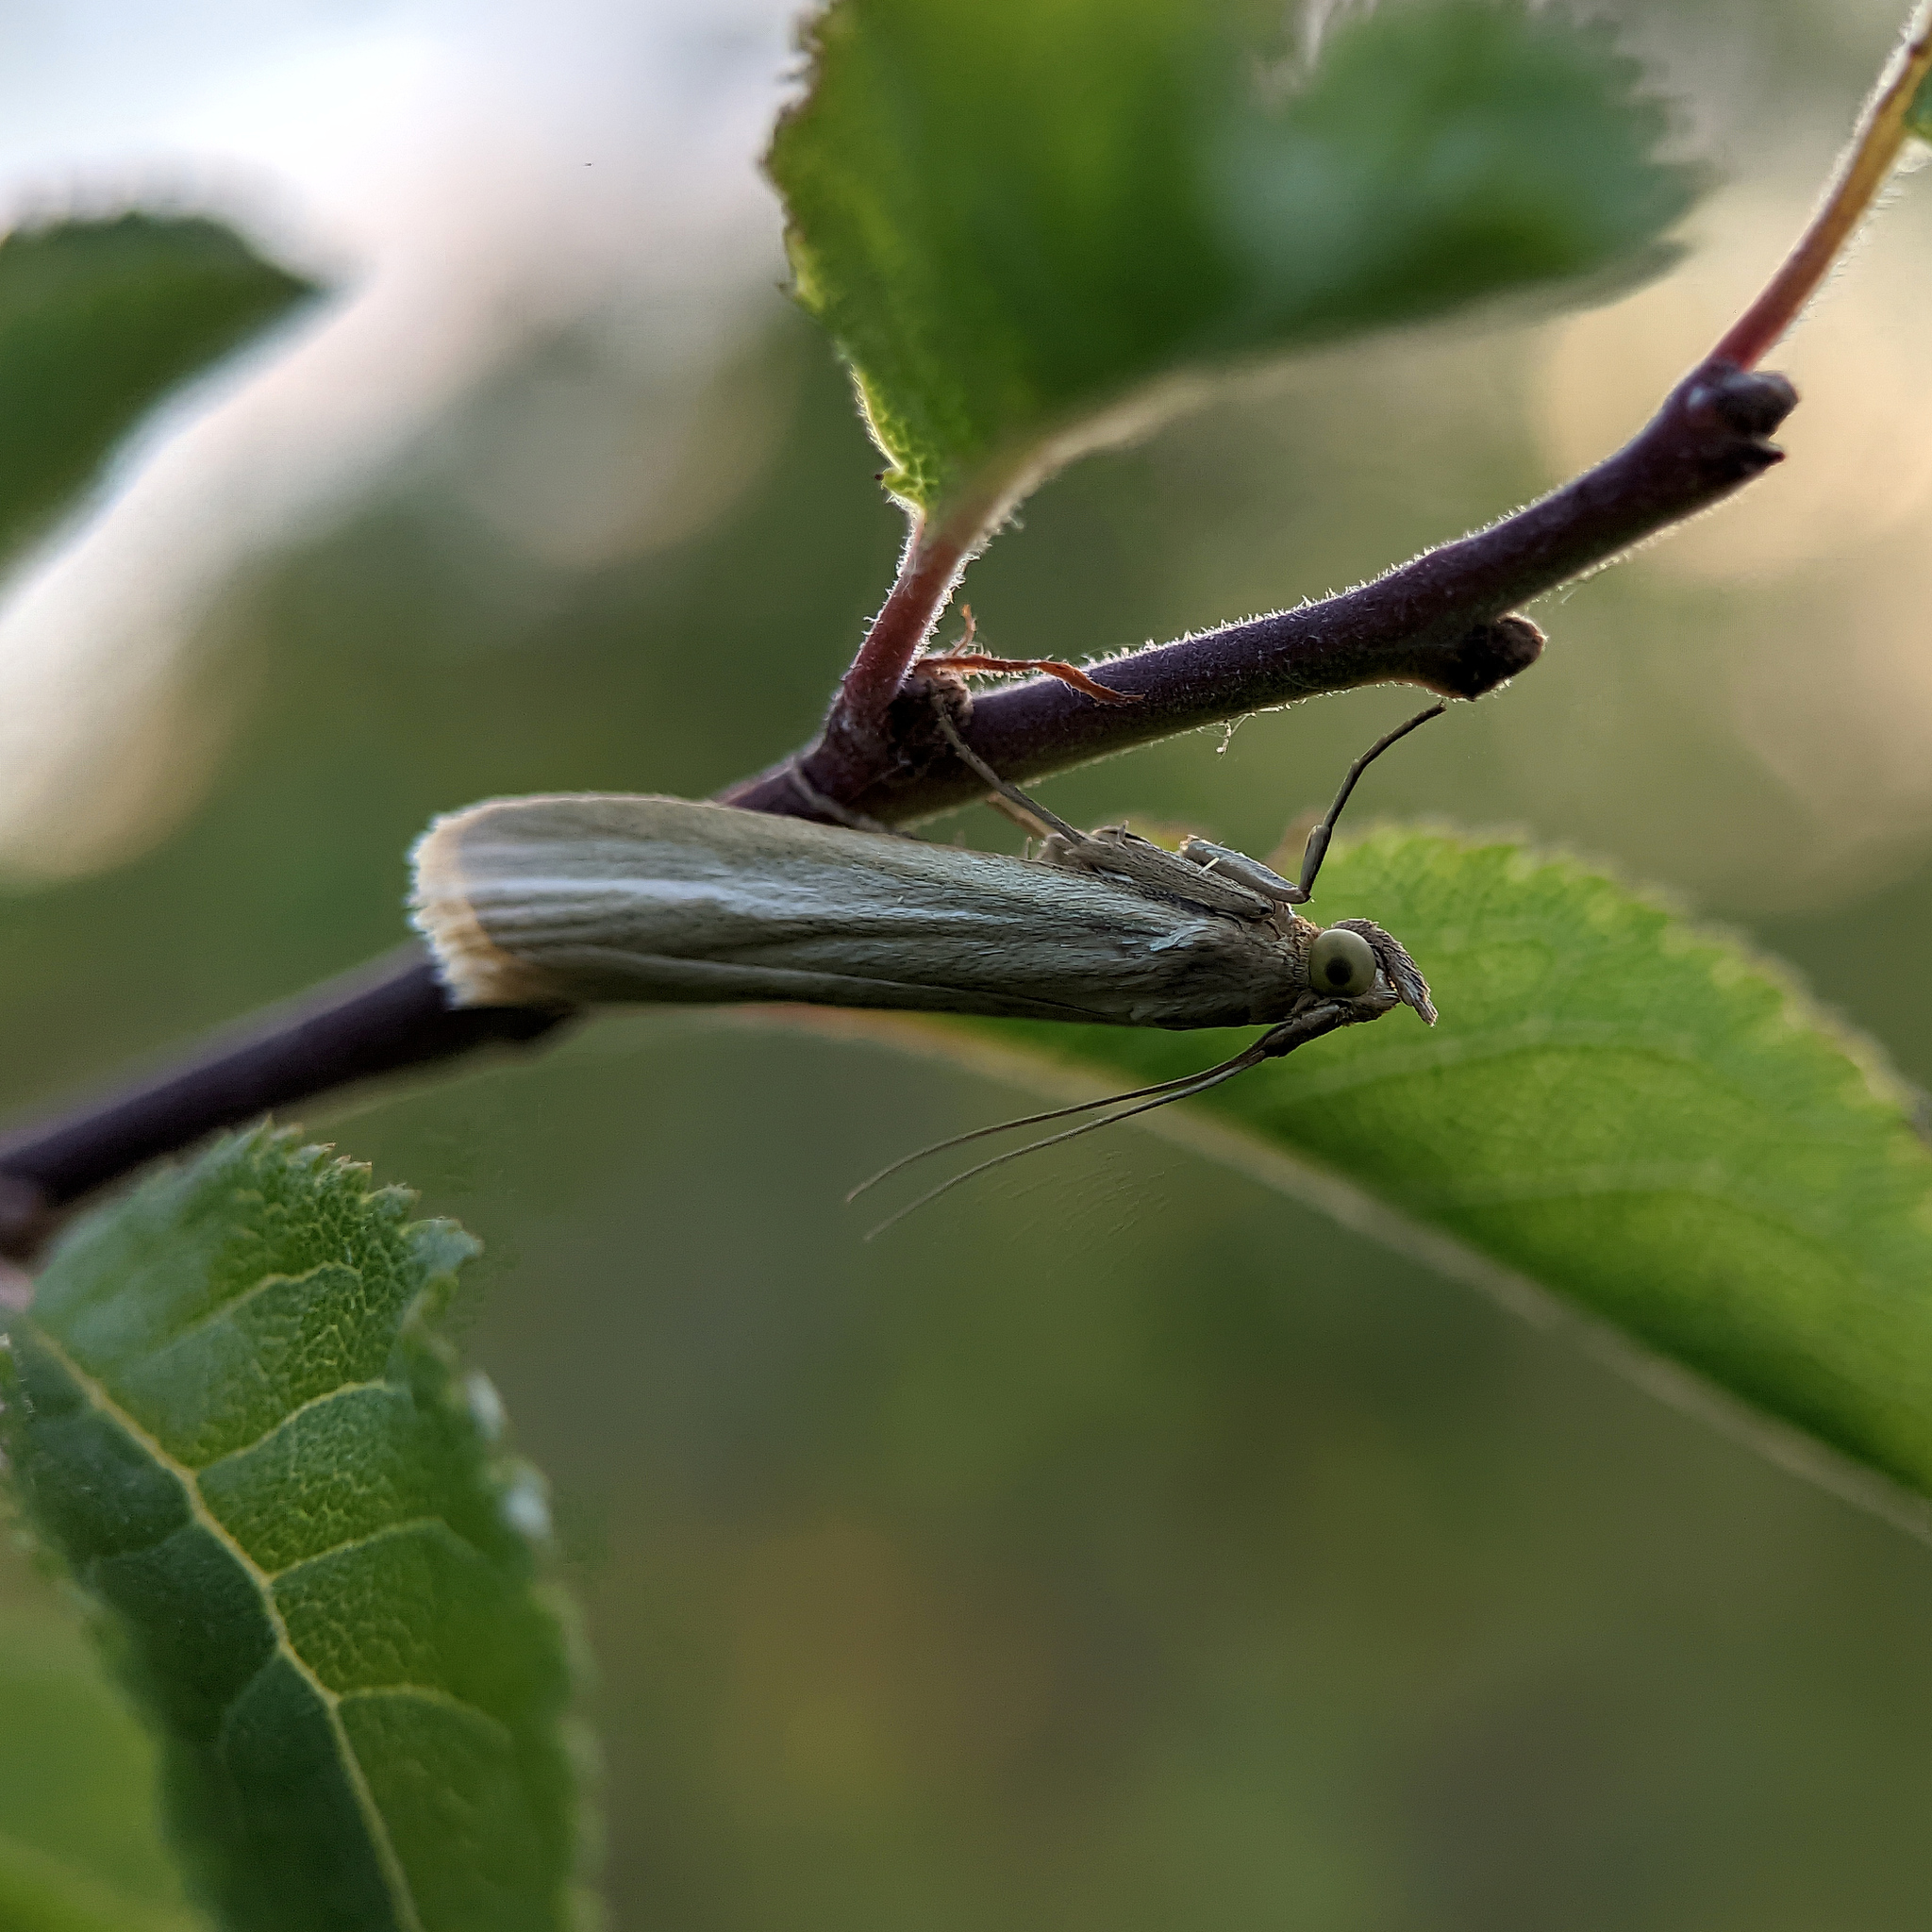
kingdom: Animalia
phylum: Arthropoda
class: Insecta
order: Lepidoptera
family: Pyralidae
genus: Selagia
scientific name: Selagia argyrella
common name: Silvery knot-horn
